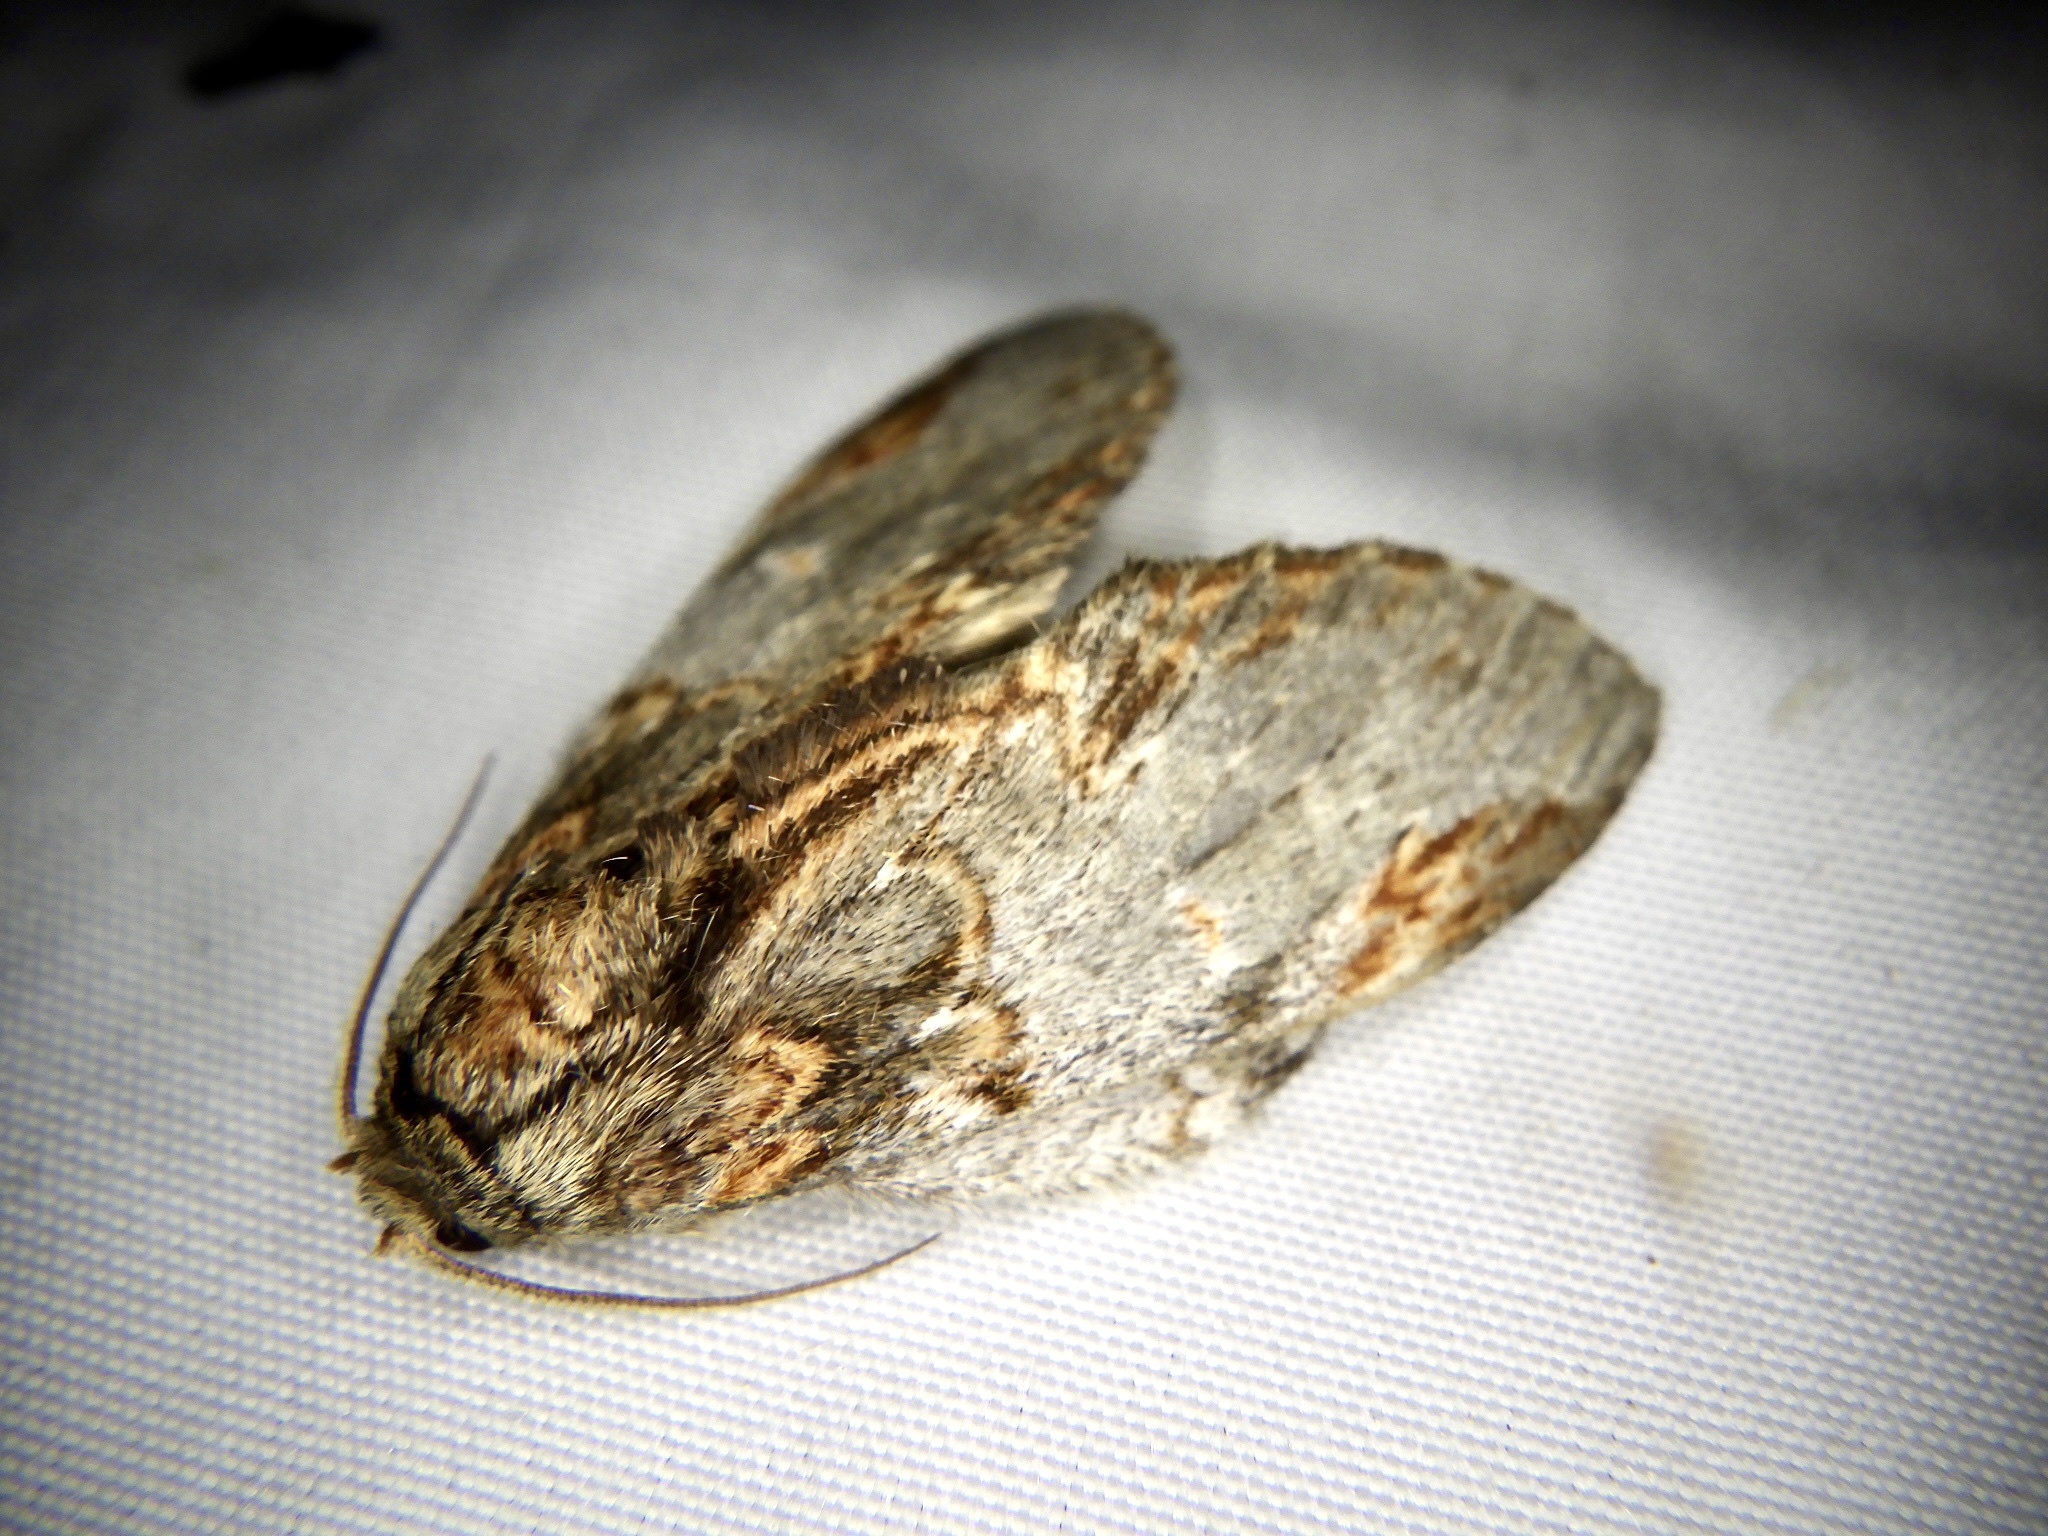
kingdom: Animalia
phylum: Arthropoda
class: Insecta
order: Lepidoptera
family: Notodontidae
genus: Peridea
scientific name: Peridea graeseri
